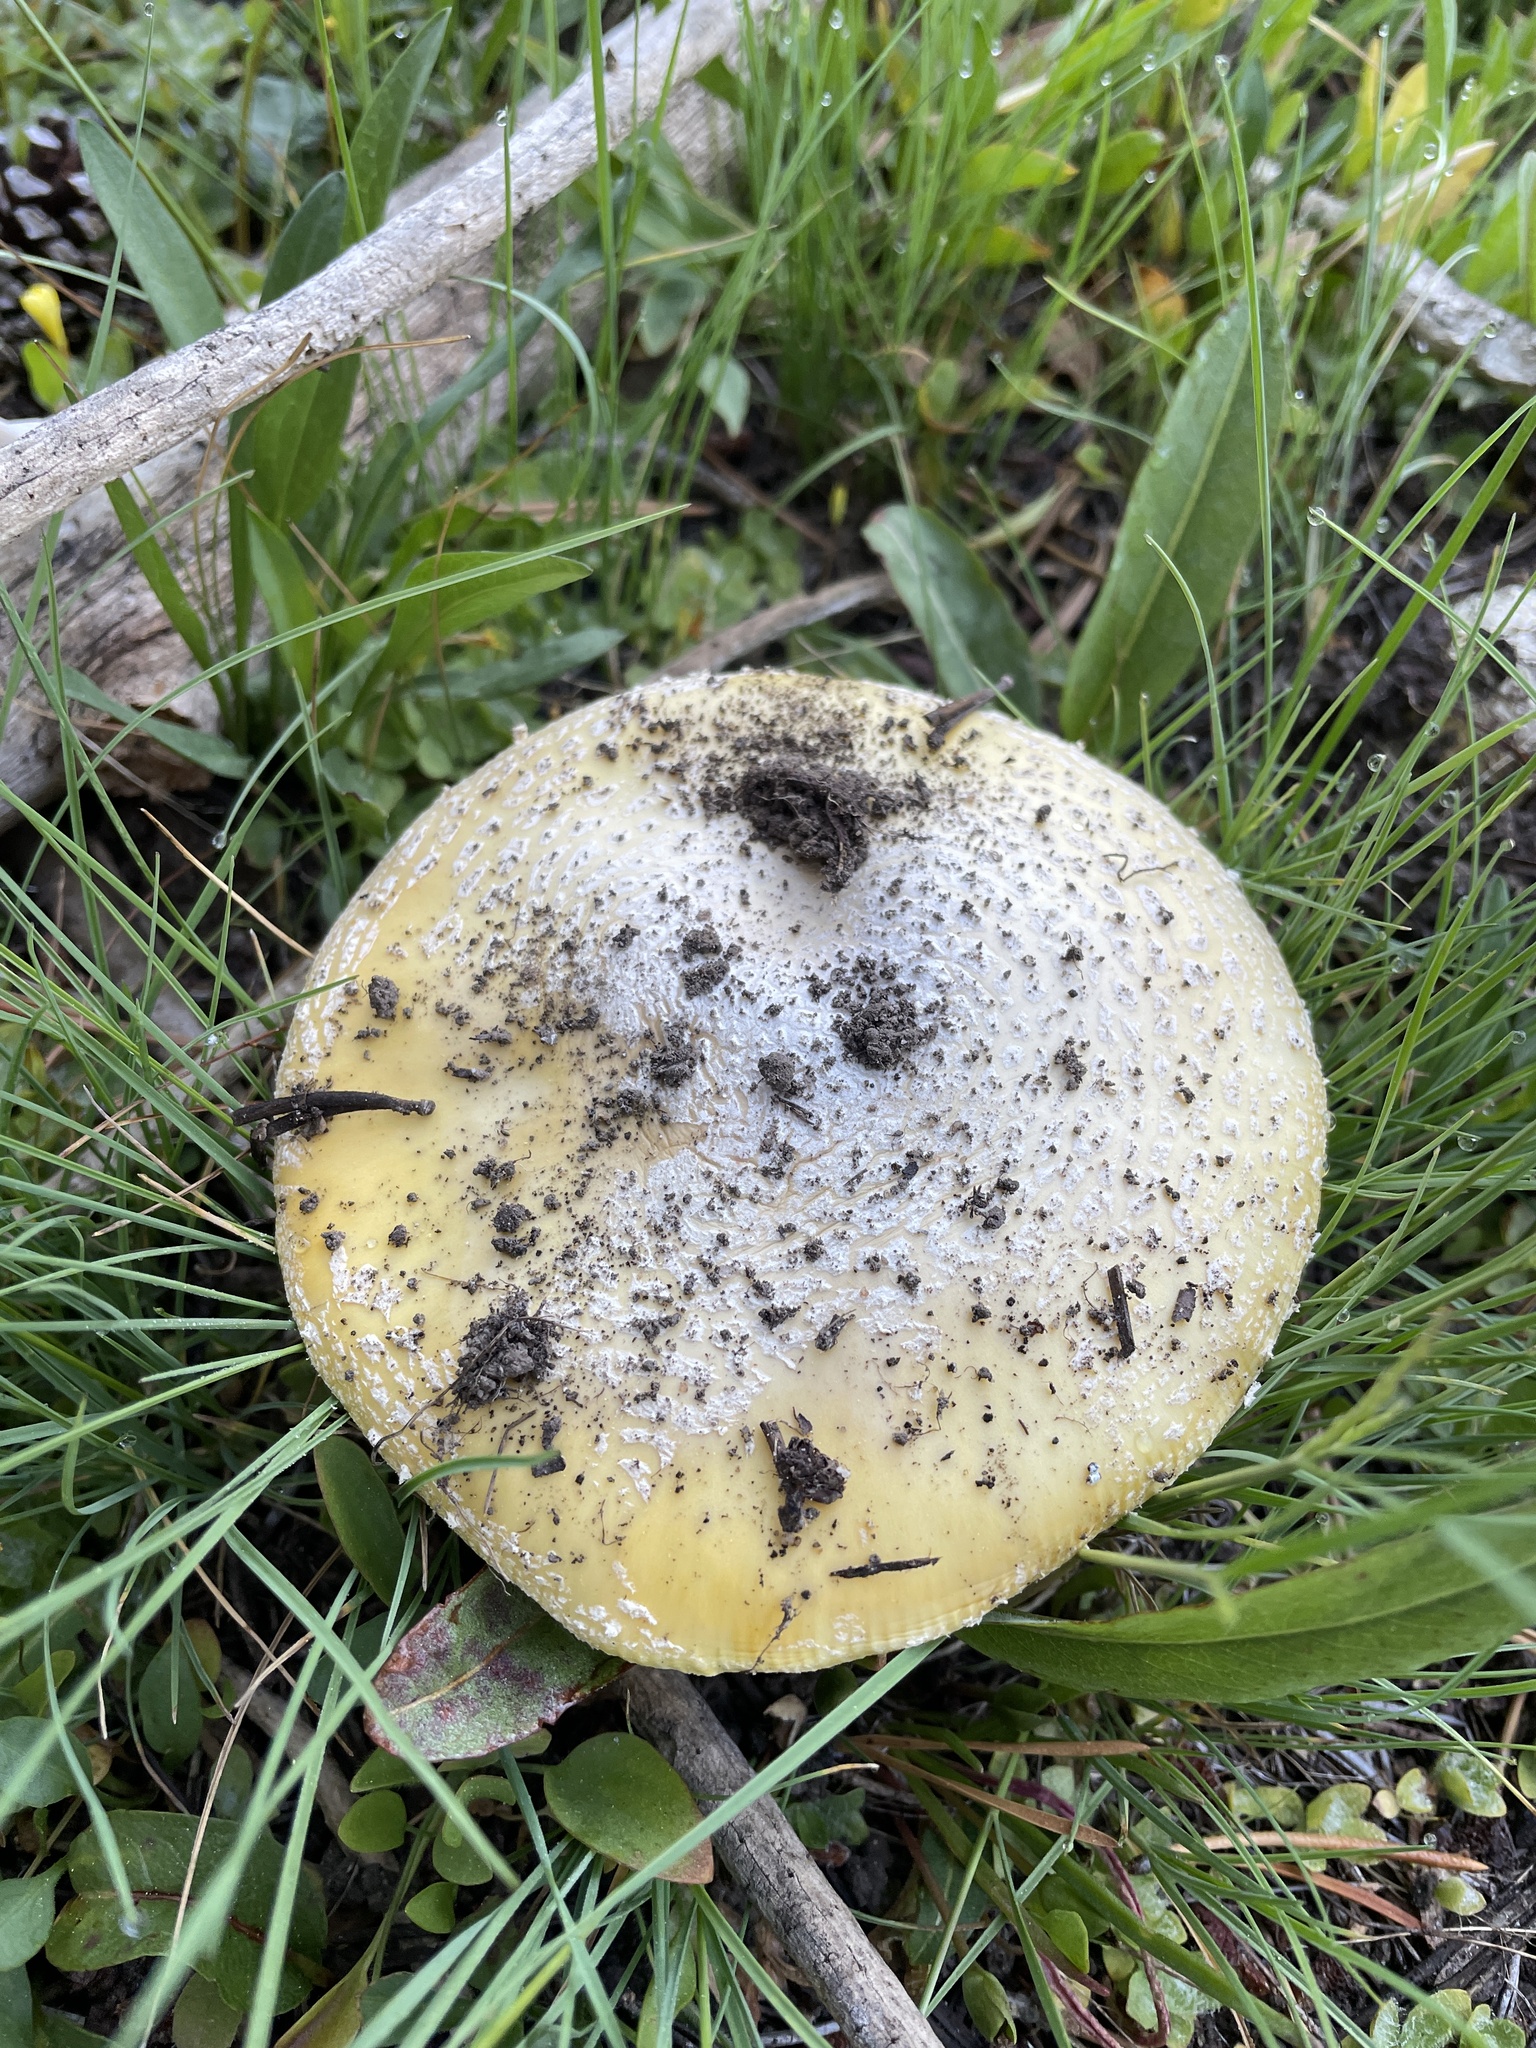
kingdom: Fungi
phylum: Basidiomycota
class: Agaricomycetes
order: Agaricales
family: Amanitaceae
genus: Amanita
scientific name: Amanita aprica
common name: Sunshine amanita
